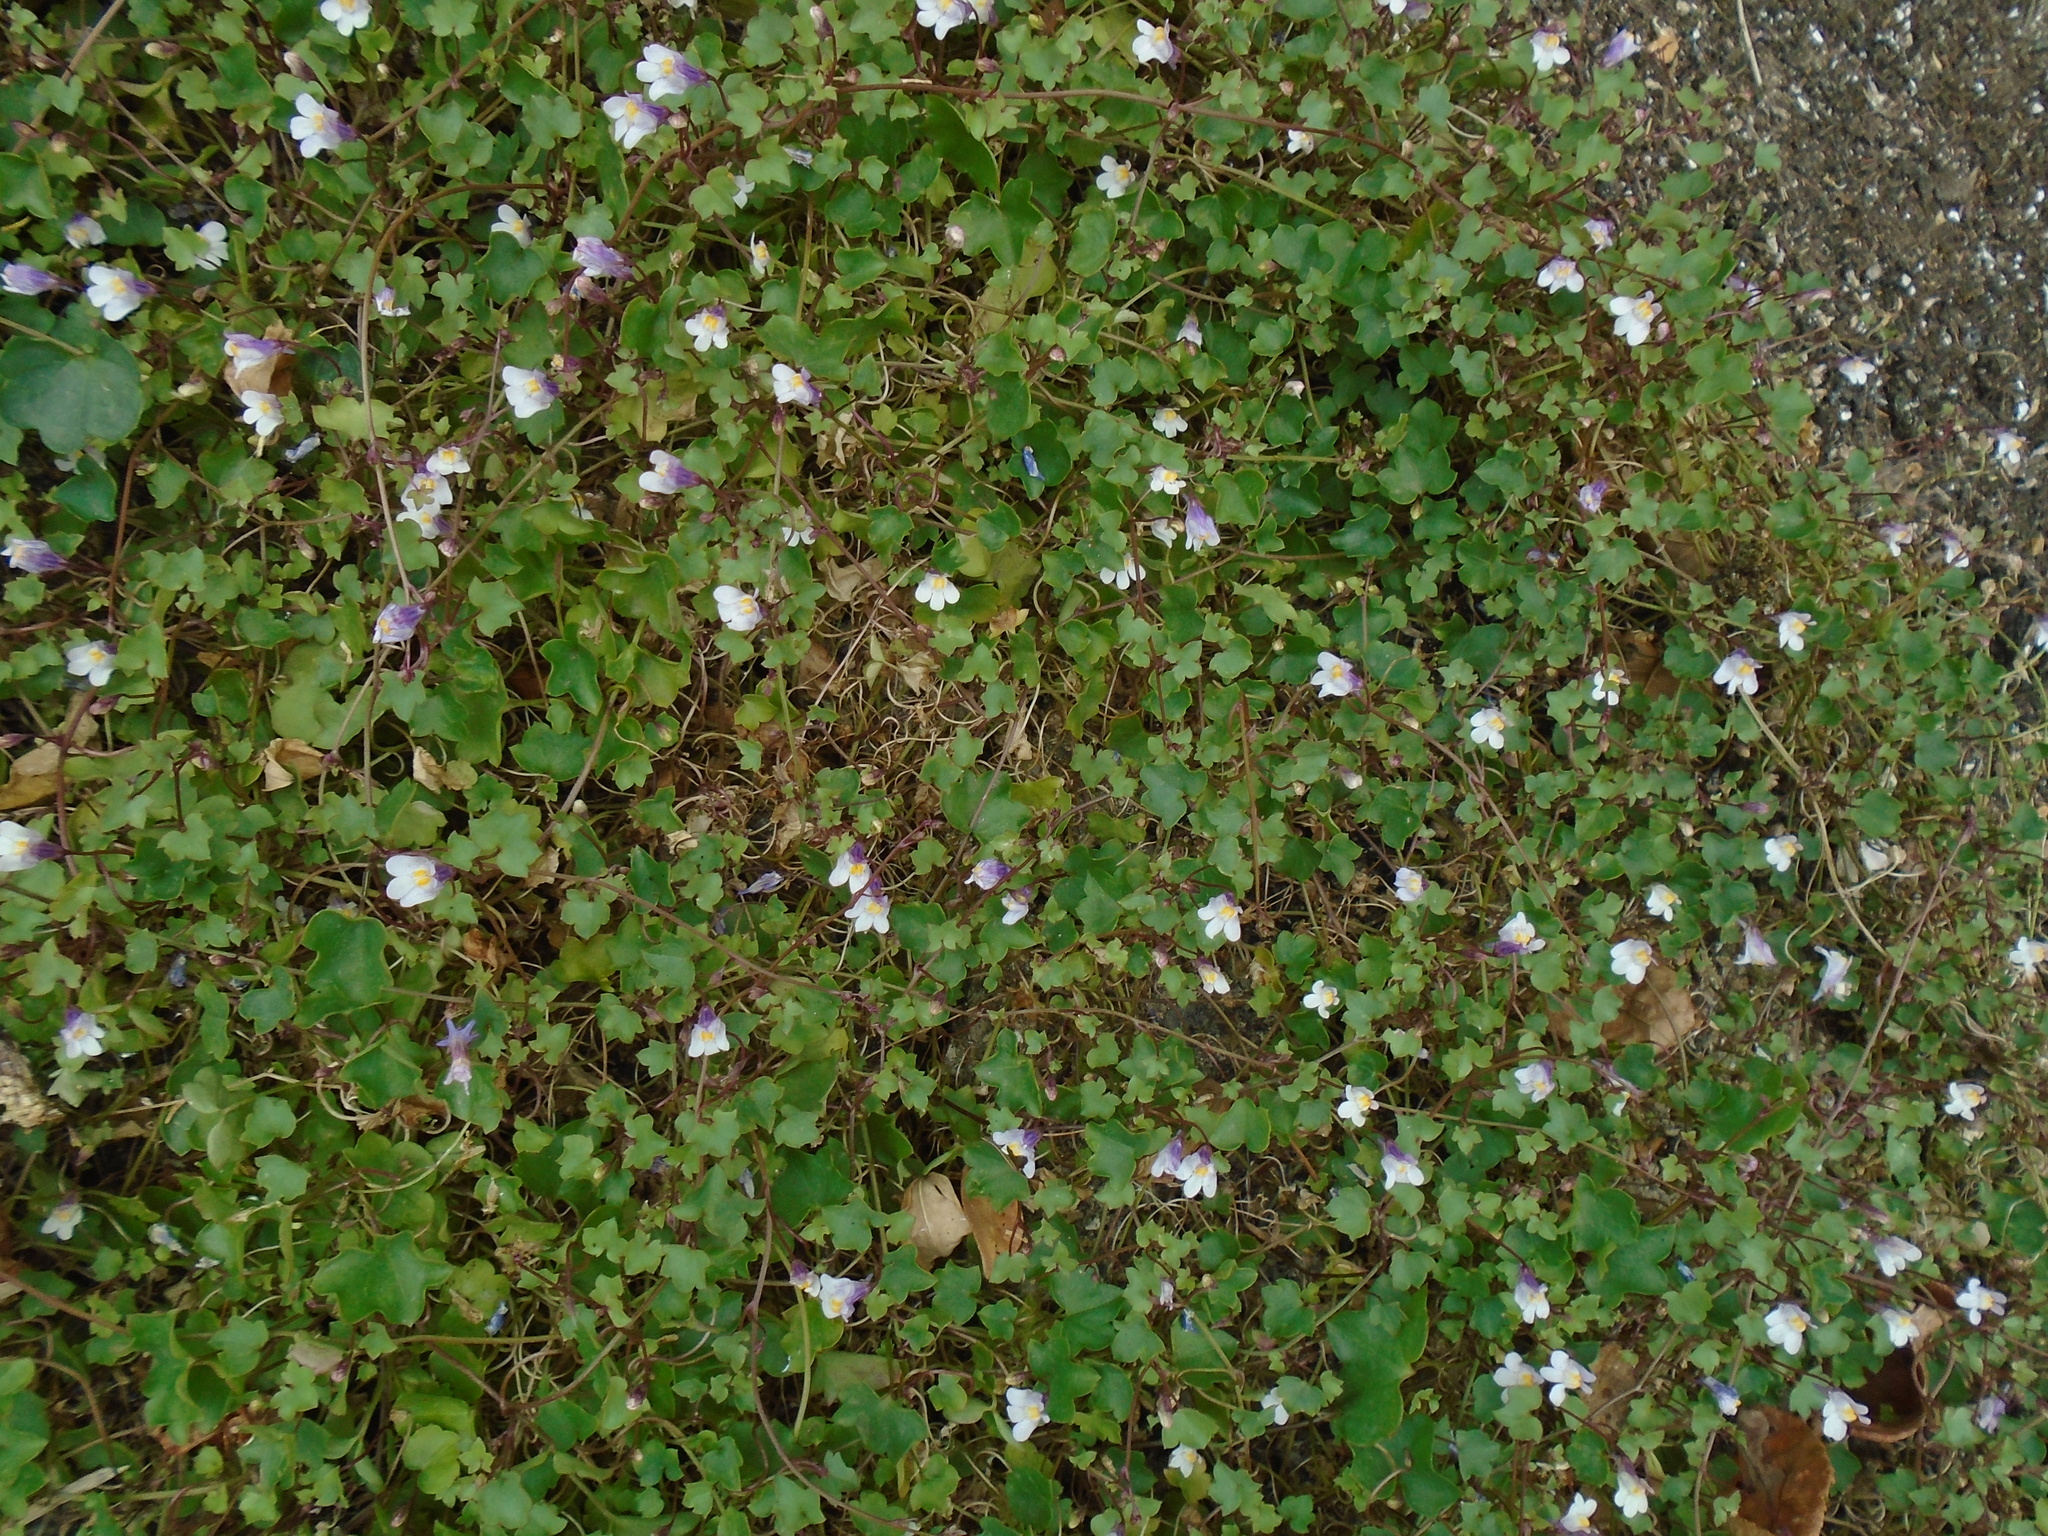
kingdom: Plantae
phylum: Tracheophyta
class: Magnoliopsida
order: Lamiales
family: Plantaginaceae
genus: Cymbalaria
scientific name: Cymbalaria muralis
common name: Ivy-leaved toadflax
